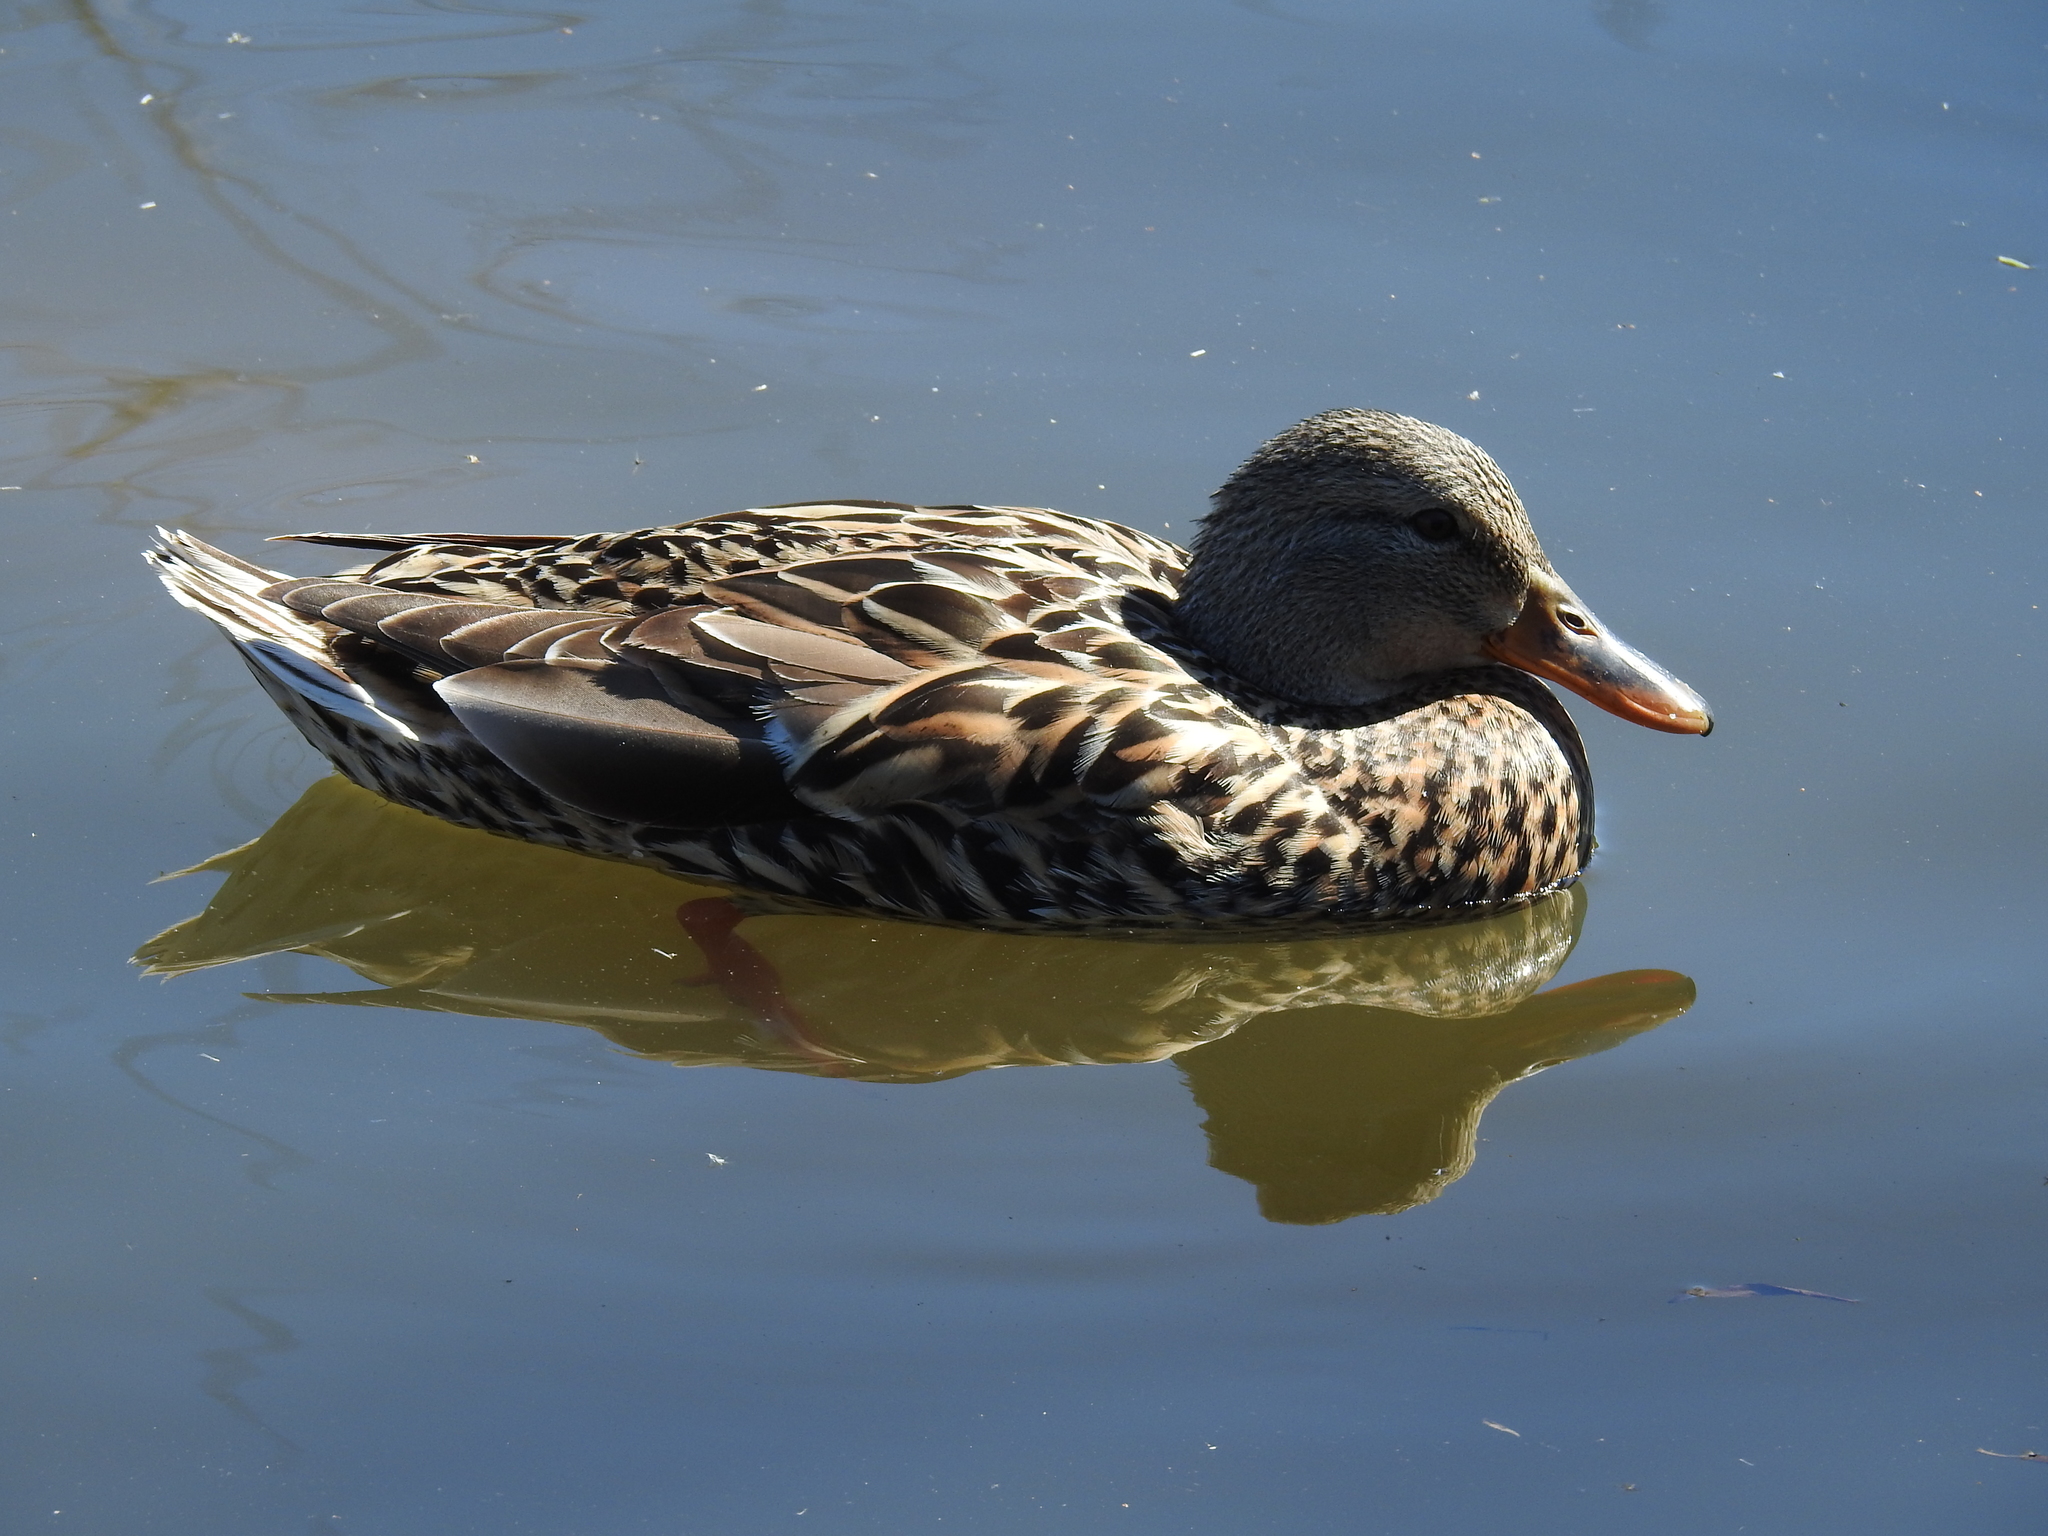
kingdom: Animalia
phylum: Chordata
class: Aves
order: Anseriformes
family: Anatidae
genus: Anas
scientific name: Anas platyrhynchos
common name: Mallard
